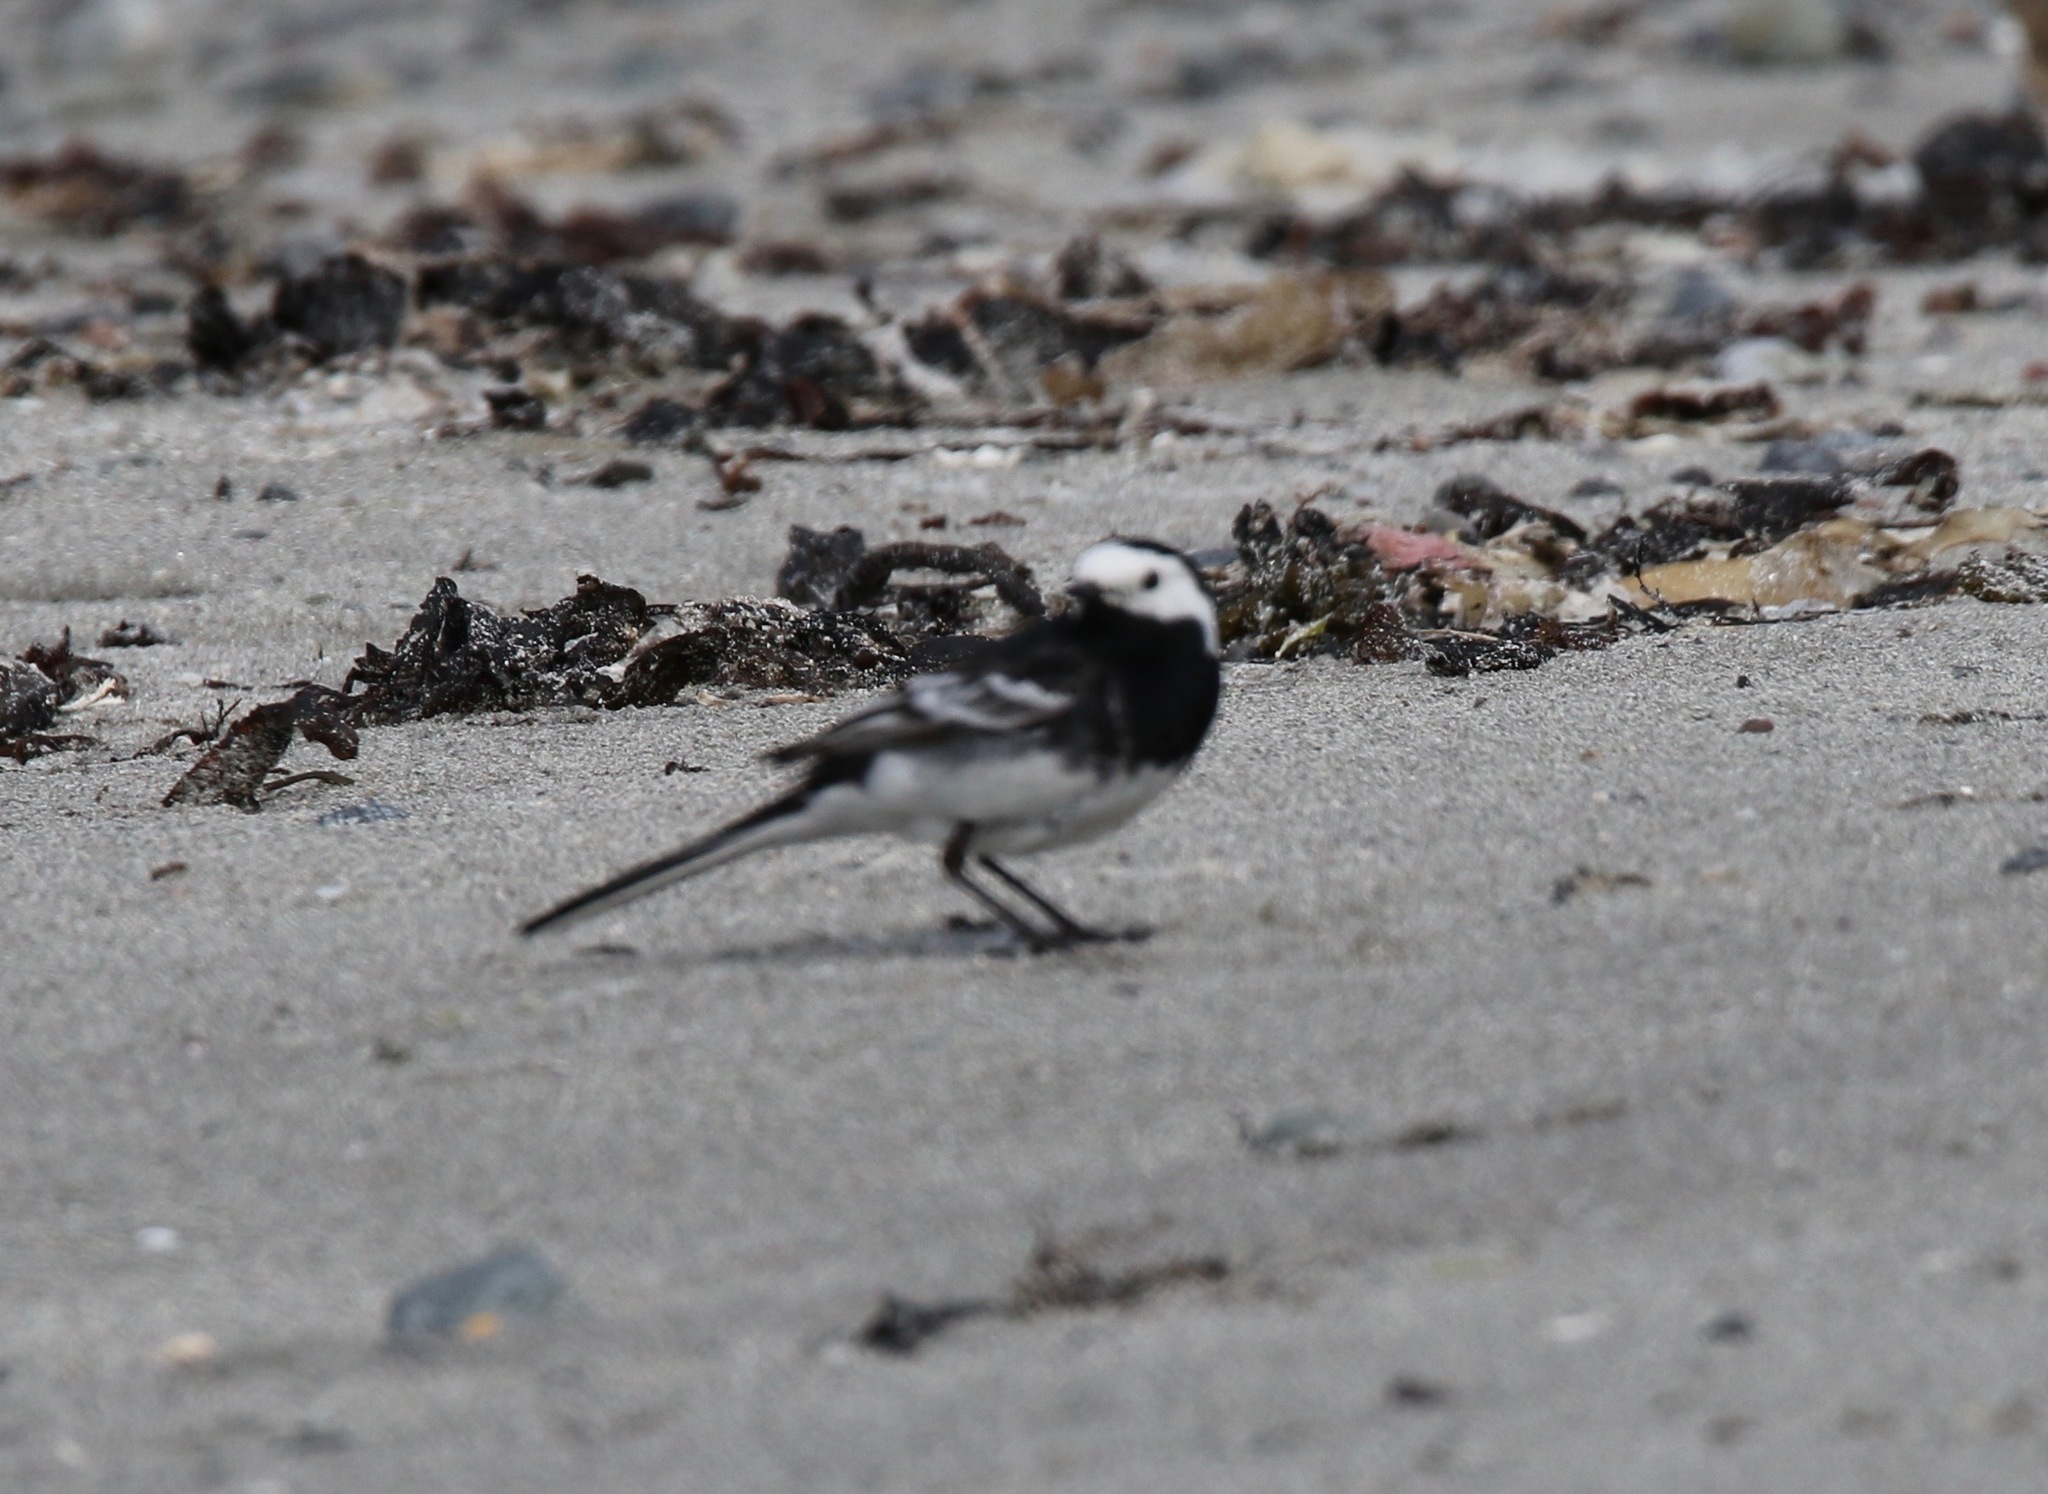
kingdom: Animalia
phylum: Chordata
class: Aves
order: Passeriformes
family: Motacillidae
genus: Motacilla
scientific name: Motacilla alba
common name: White wagtail
